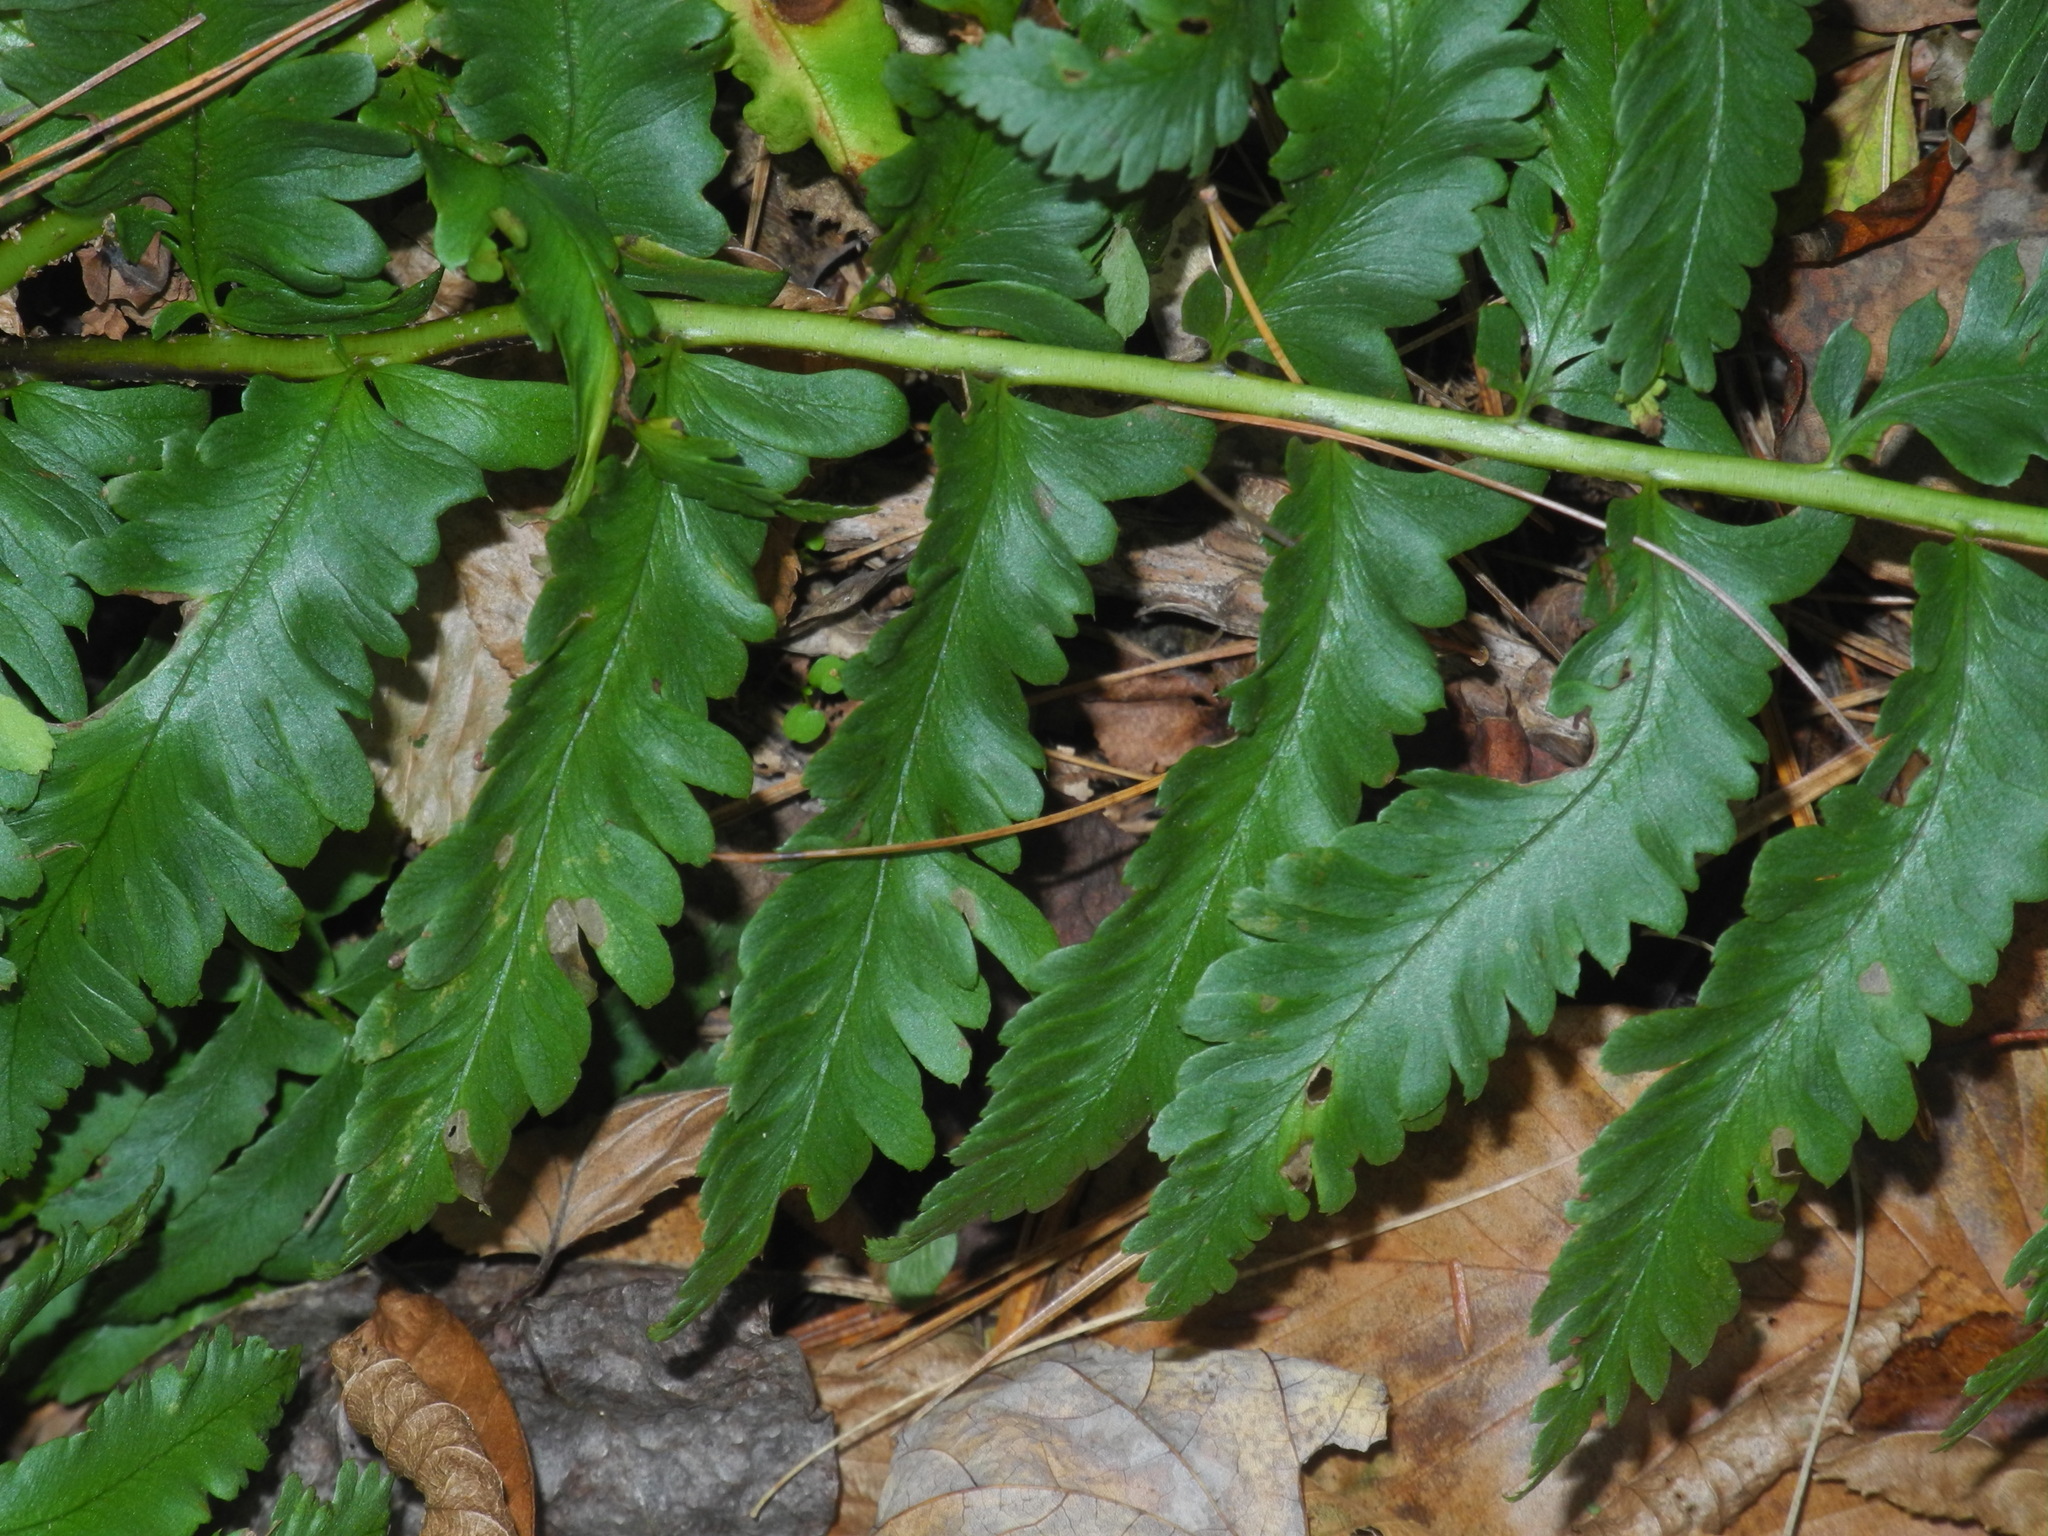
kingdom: Plantae
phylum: Tracheophyta
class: Polypodiopsida
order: Polypodiales
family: Dryopteridaceae
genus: Polystichum
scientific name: Polystichum acrostichoides
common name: Christmas fern
